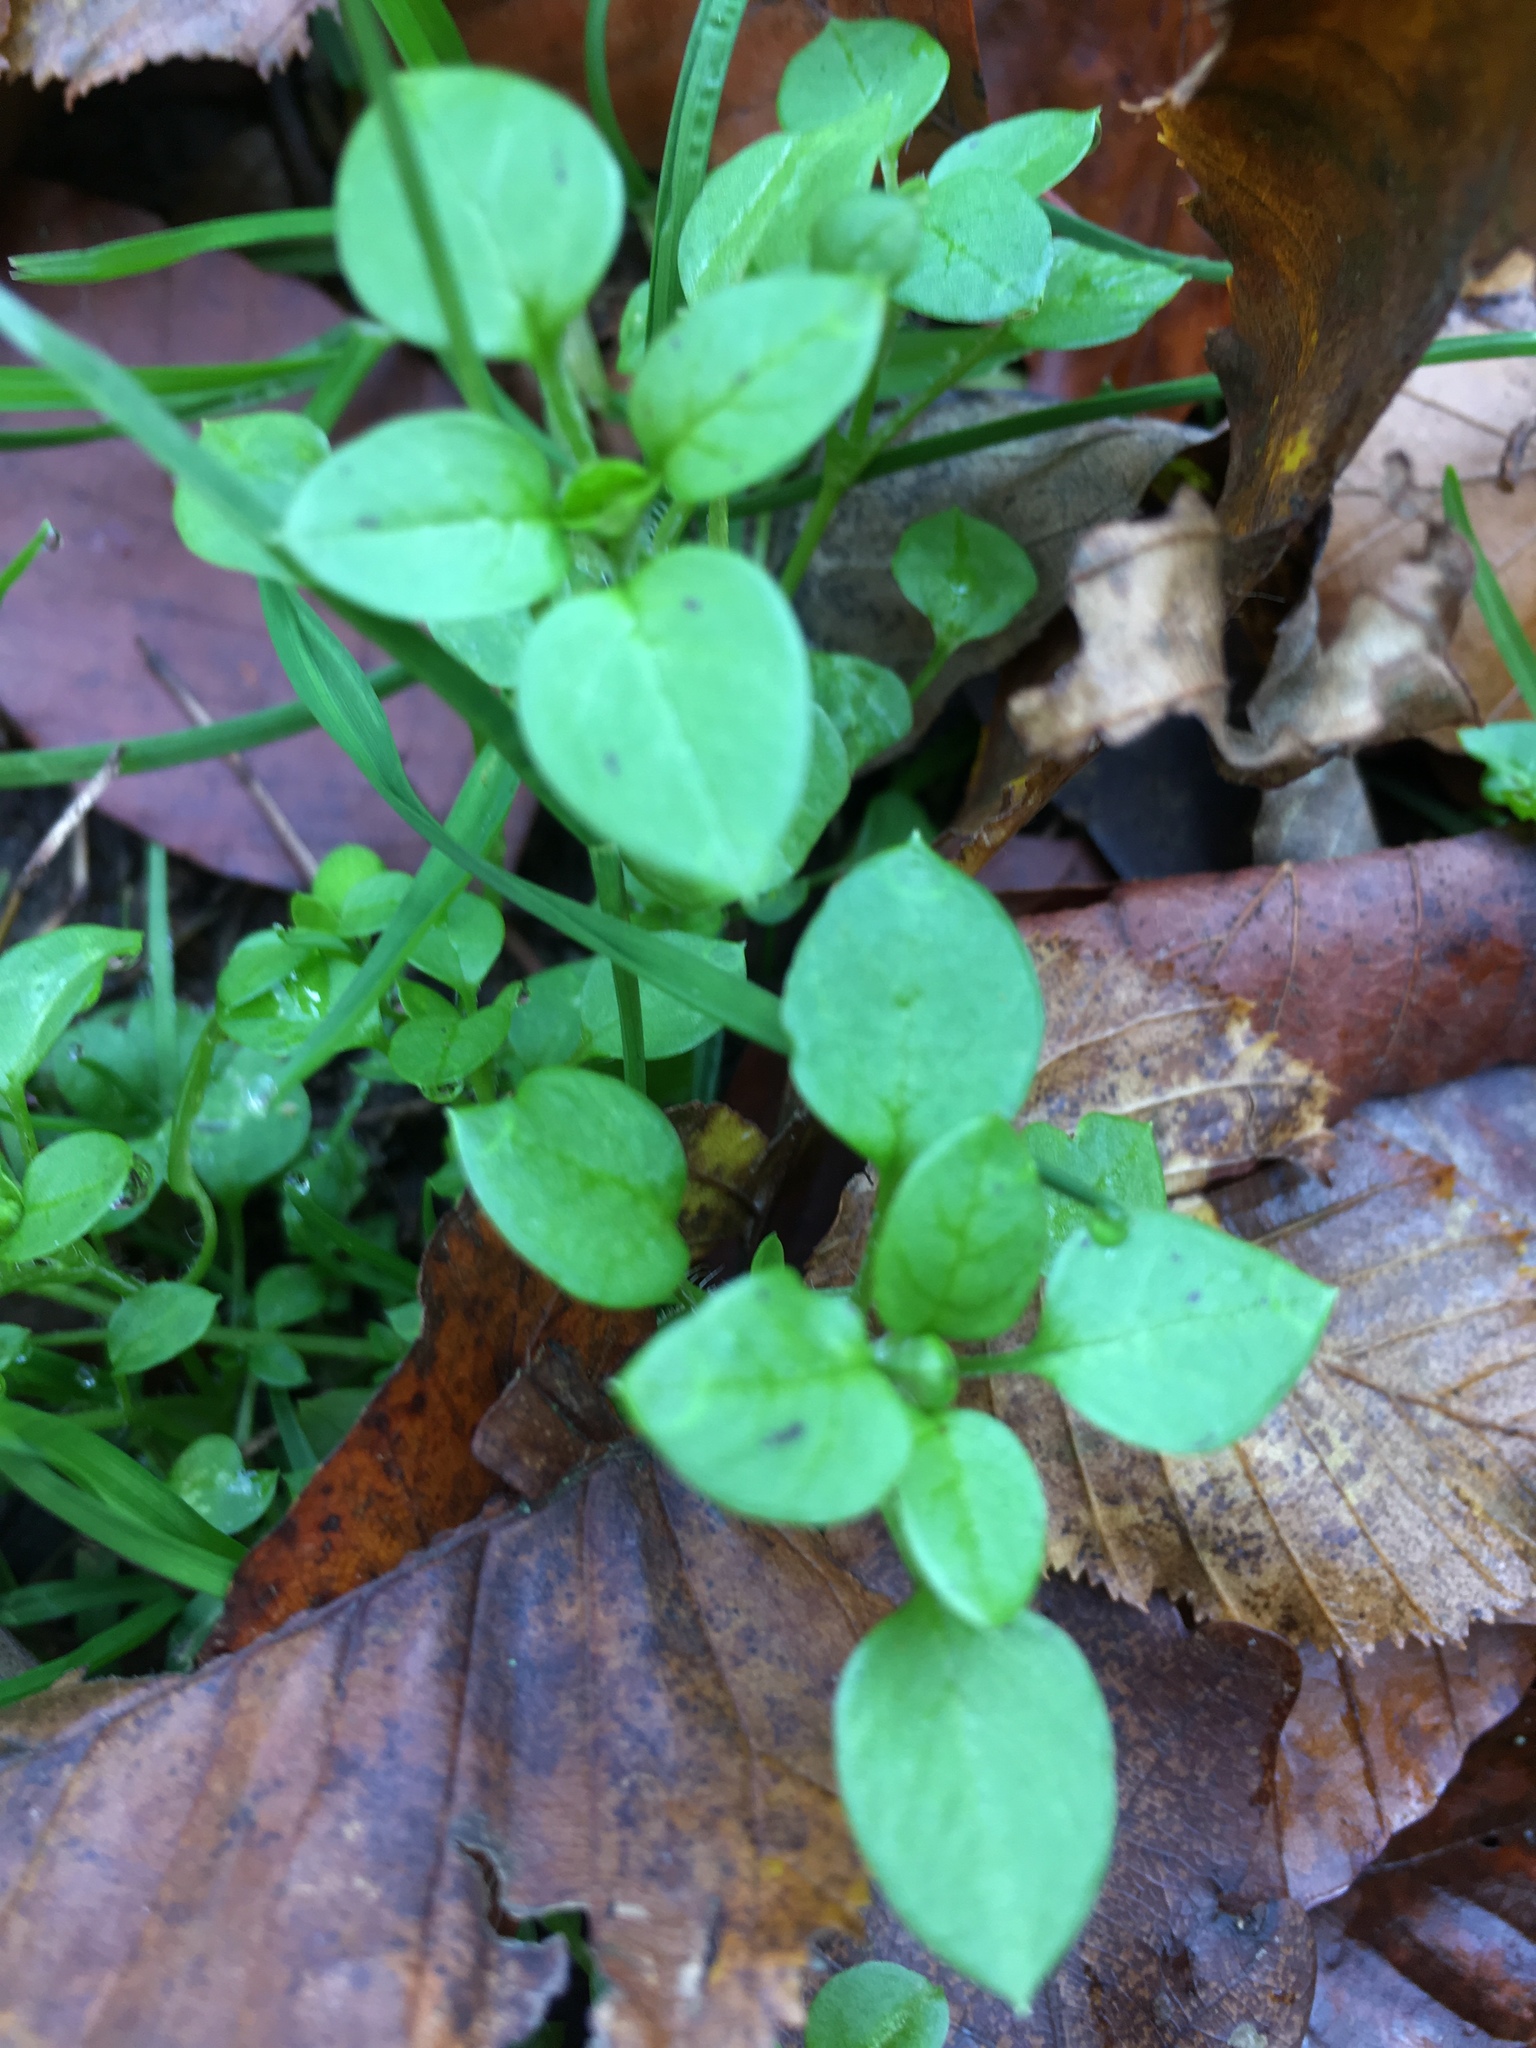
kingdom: Plantae
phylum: Tracheophyta
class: Magnoliopsida
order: Caryophyllales
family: Caryophyllaceae
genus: Stellaria
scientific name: Stellaria media
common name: Common chickweed
